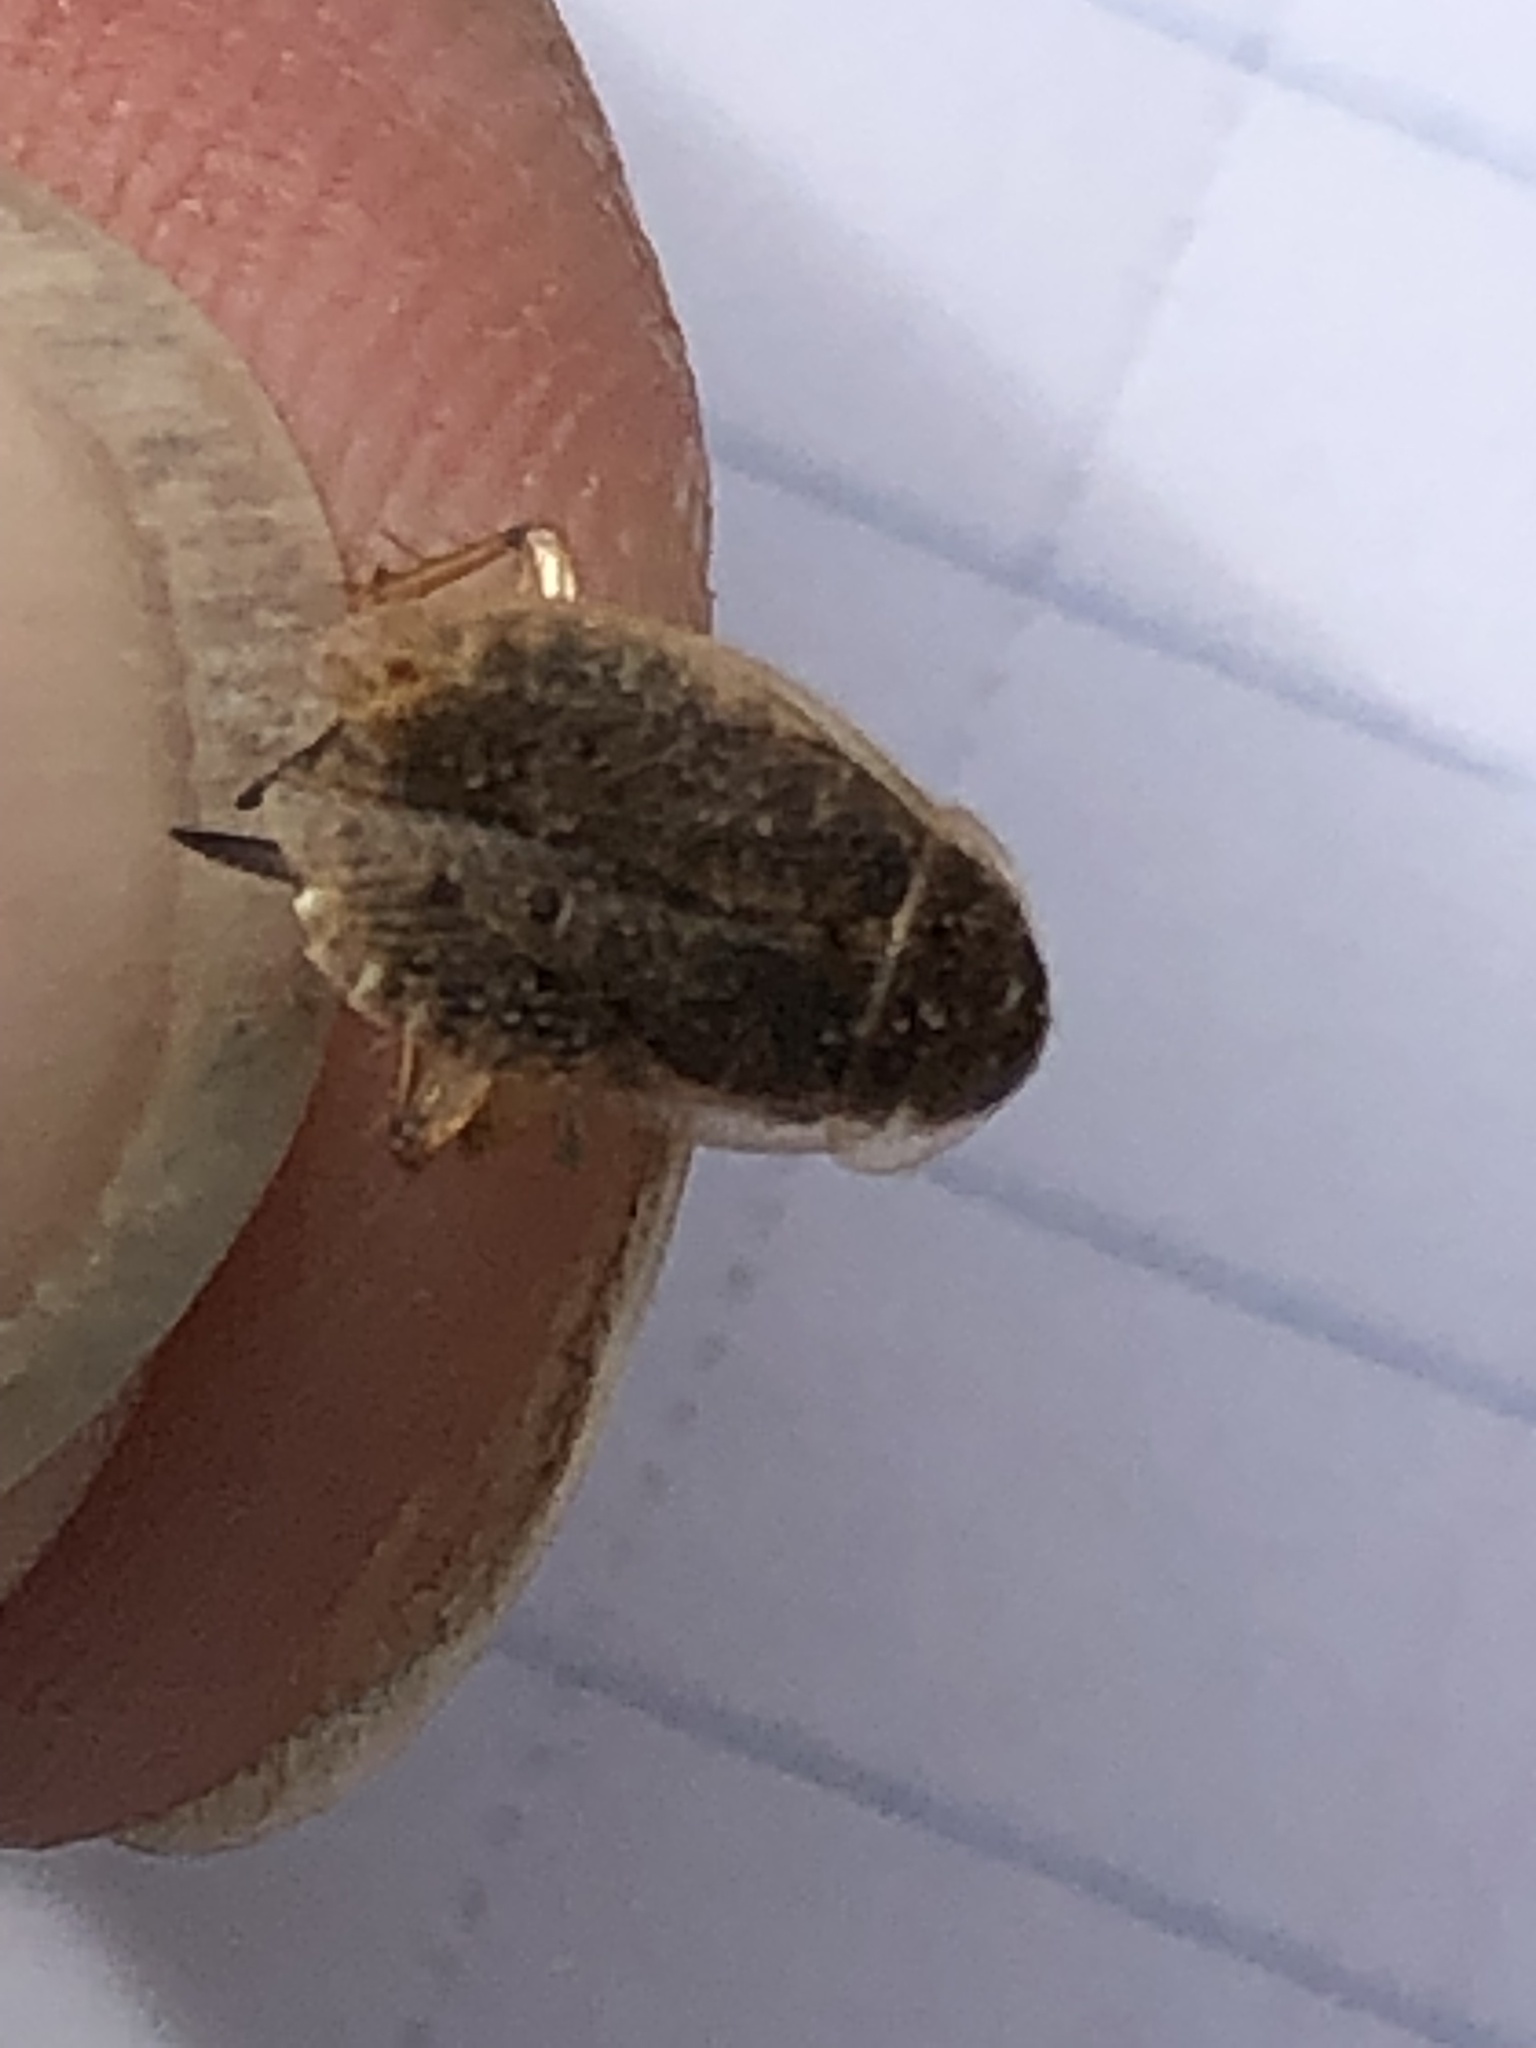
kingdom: Animalia
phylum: Arthropoda
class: Insecta
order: Blattodea
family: Ectobiidae
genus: Ectobius
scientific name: Ectobius lapponicus
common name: Dusky cockroach
